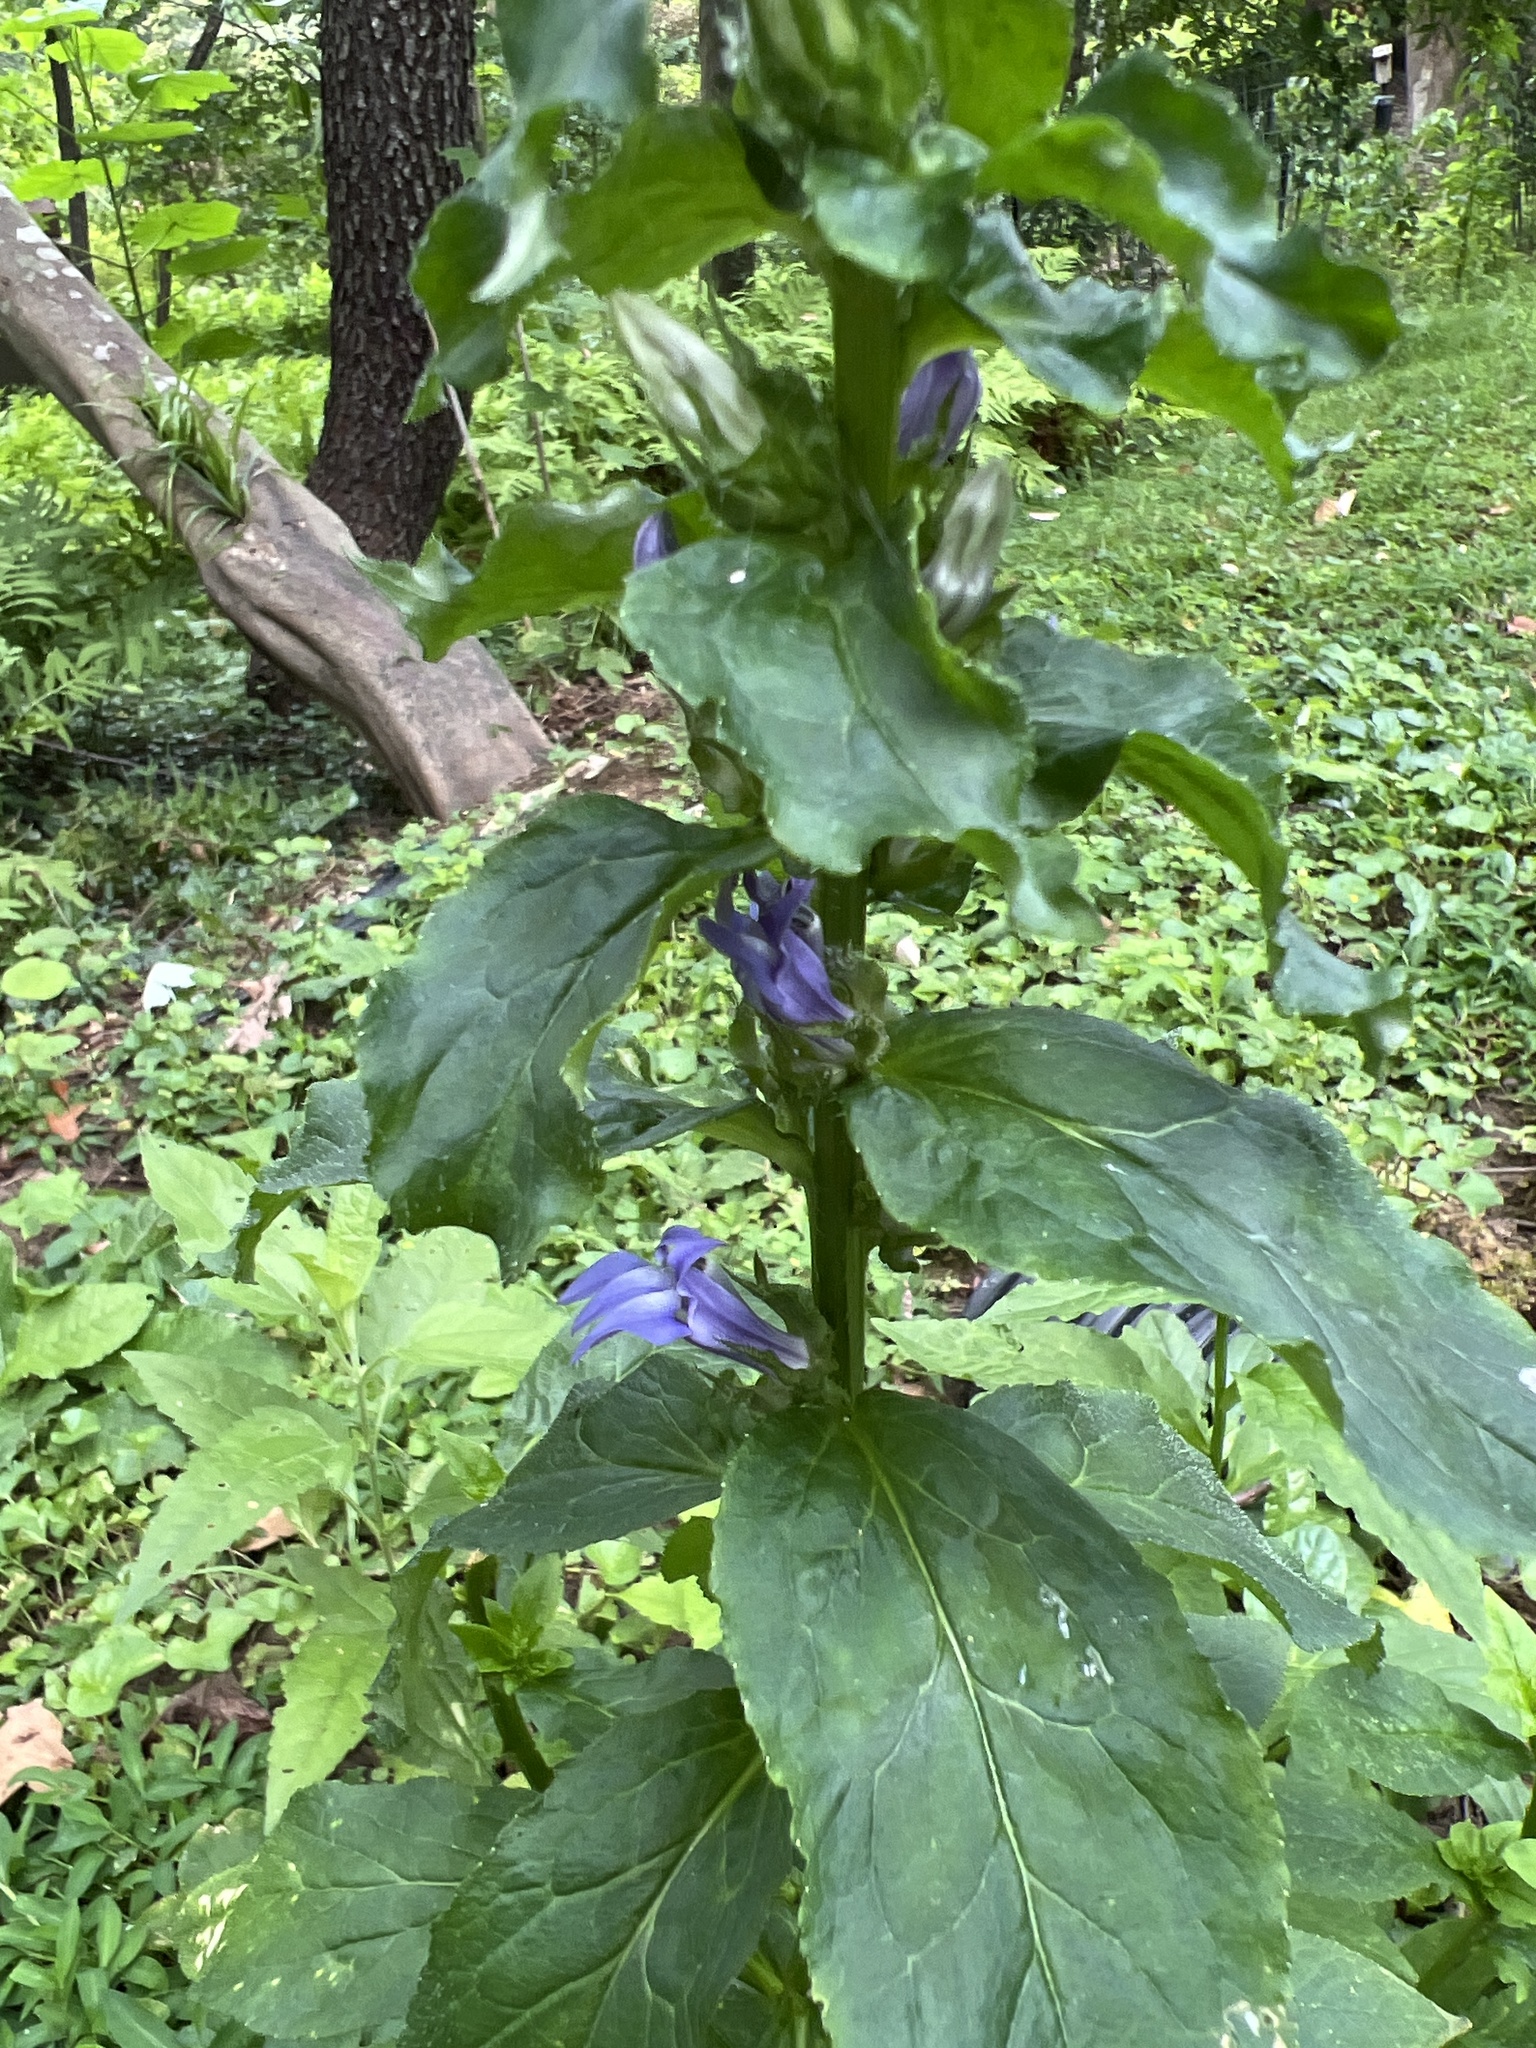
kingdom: Plantae
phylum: Tracheophyta
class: Magnoliopsida
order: Asterales
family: Campanulaceae
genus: Lobelia
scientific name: Lobelia siphilitica
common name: Great lobelia
